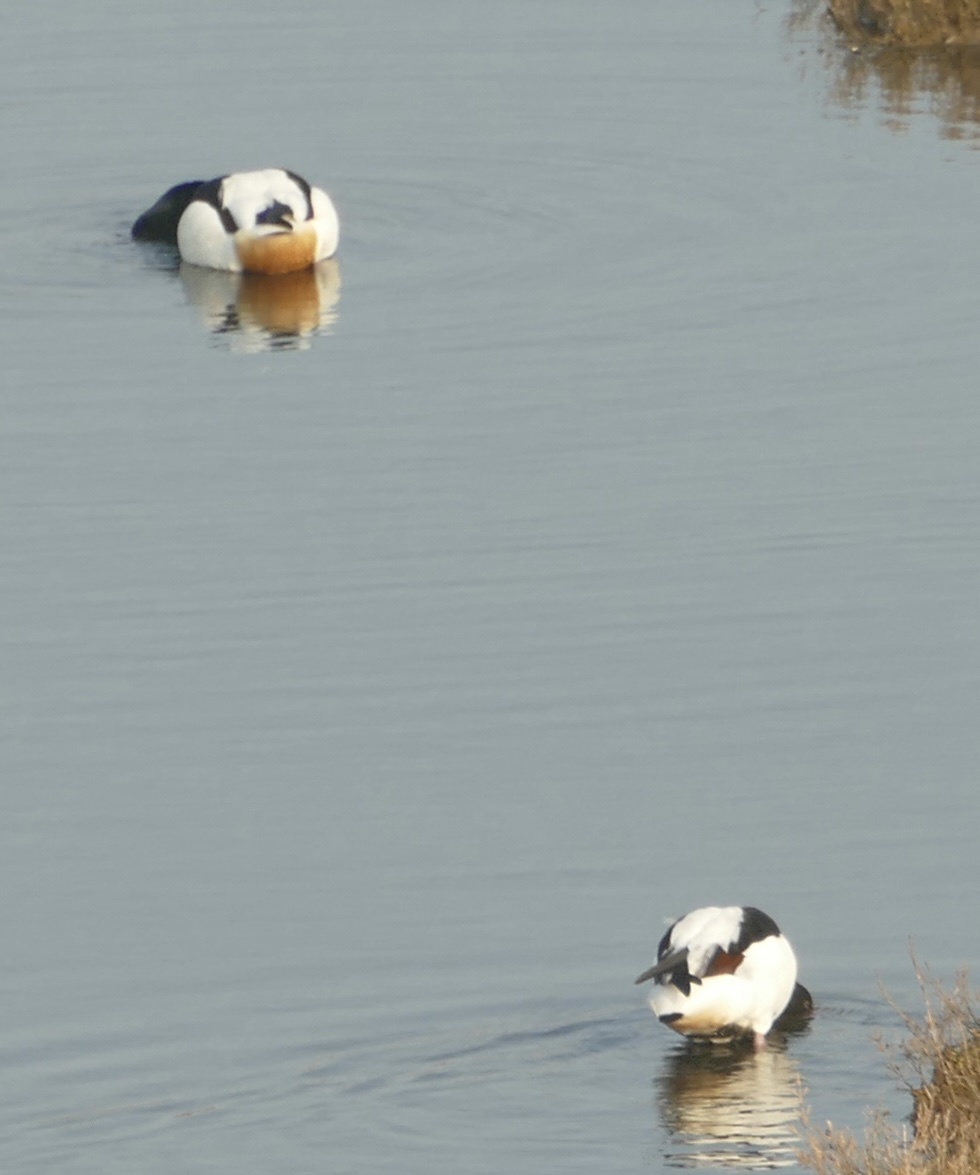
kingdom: Animalia
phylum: Chordata
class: Aves
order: Anseriformes
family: Anatidae
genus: Tadorna
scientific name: Tadorna tadorna
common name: Common shelduck
